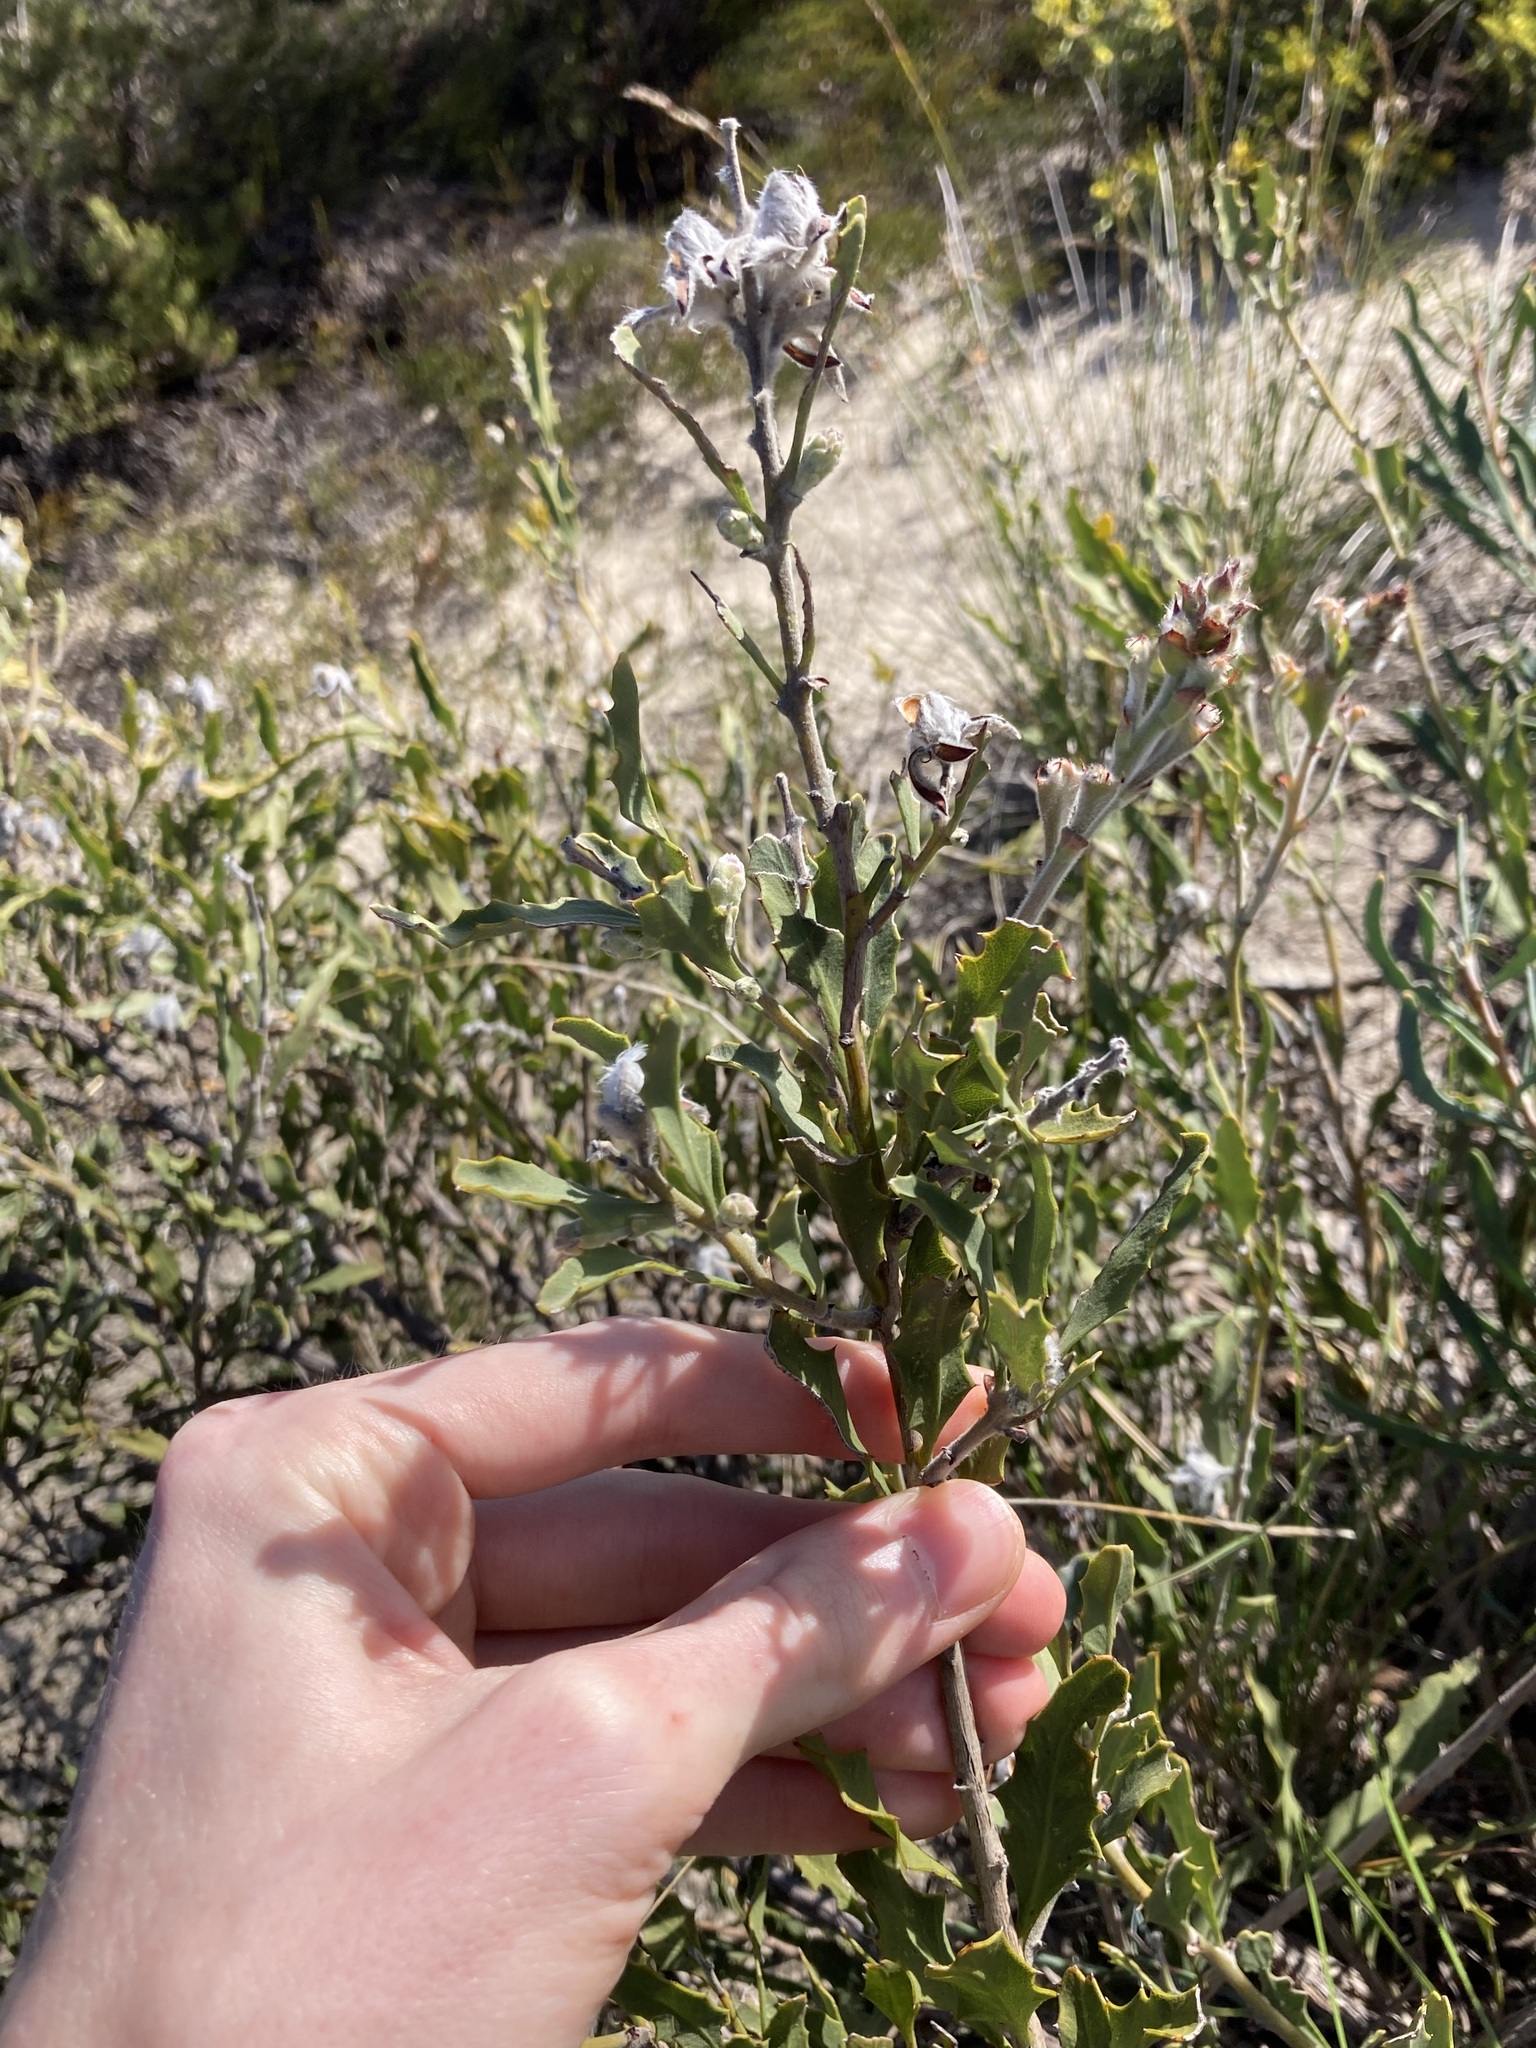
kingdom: Plantae
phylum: Tracheophyta
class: Magnoliopsida
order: Fabales
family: Fabaceae
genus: Jacksonia
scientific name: Jacksonia floribunda
